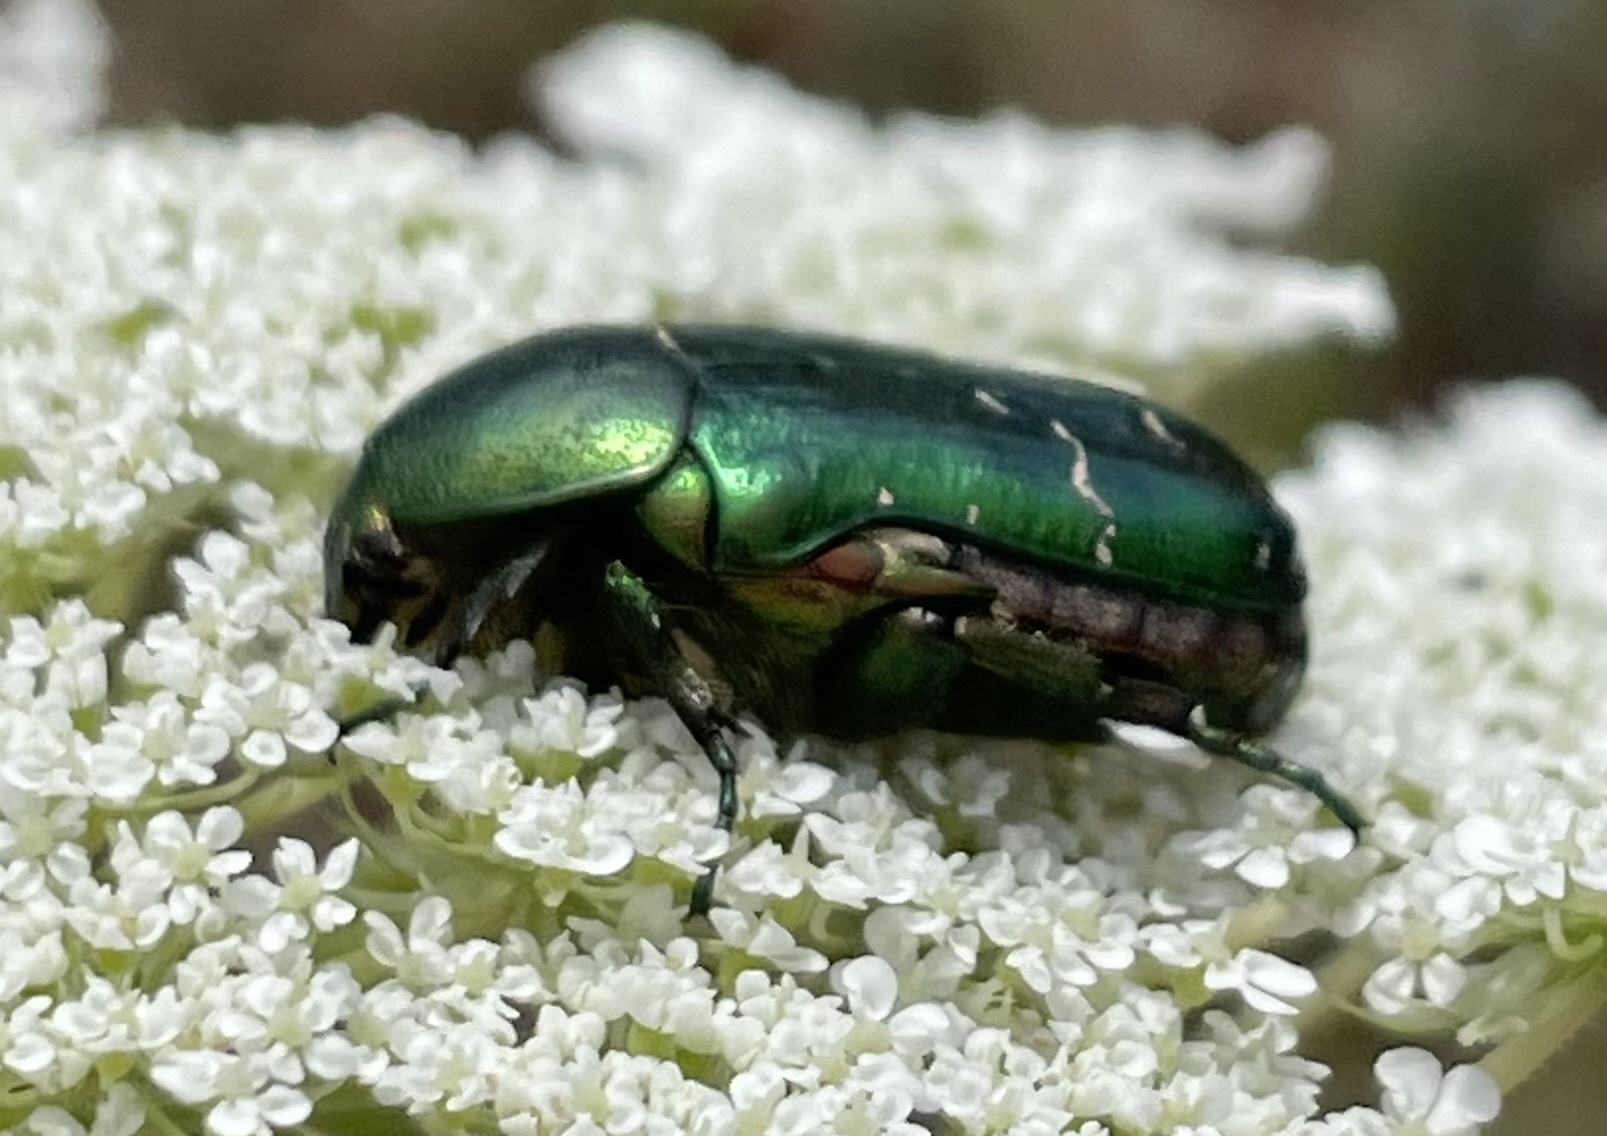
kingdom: Animalia
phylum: Arthropoda
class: Insecta
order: Coleoptera
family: Scarabaeidae
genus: Cetonia
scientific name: Cetonia aurata
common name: Rose chafer
